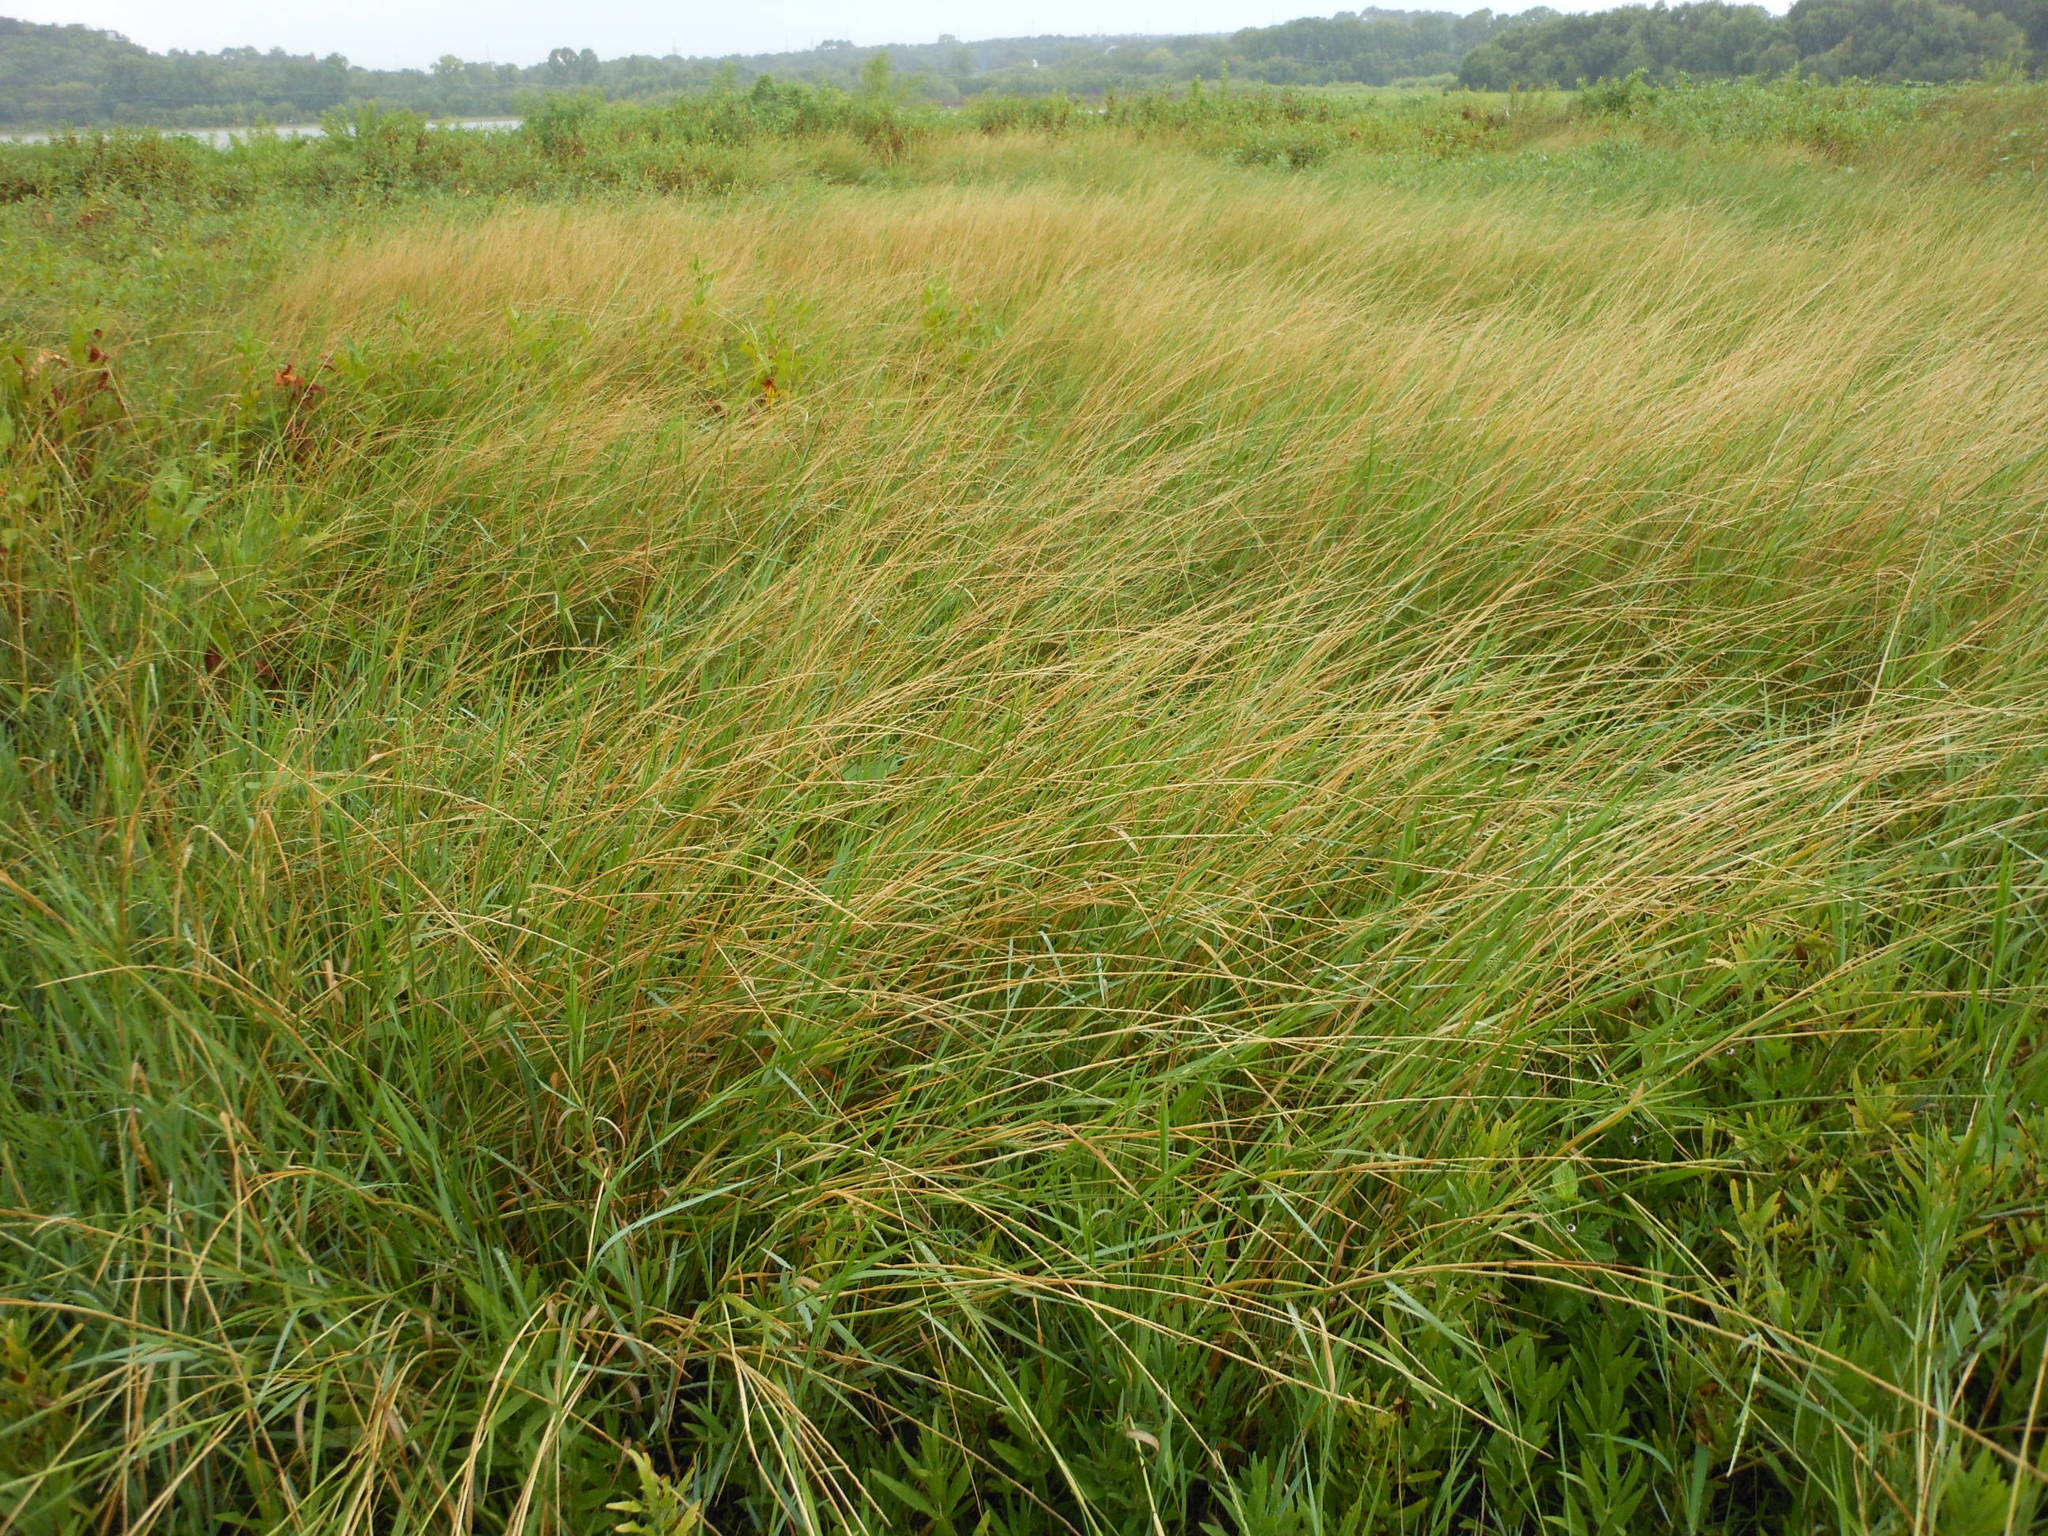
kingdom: Plantae
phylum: Tracheophyta
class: Liliopsida
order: Poales
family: Poaceae
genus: Setaria
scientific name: Setaria geminata
